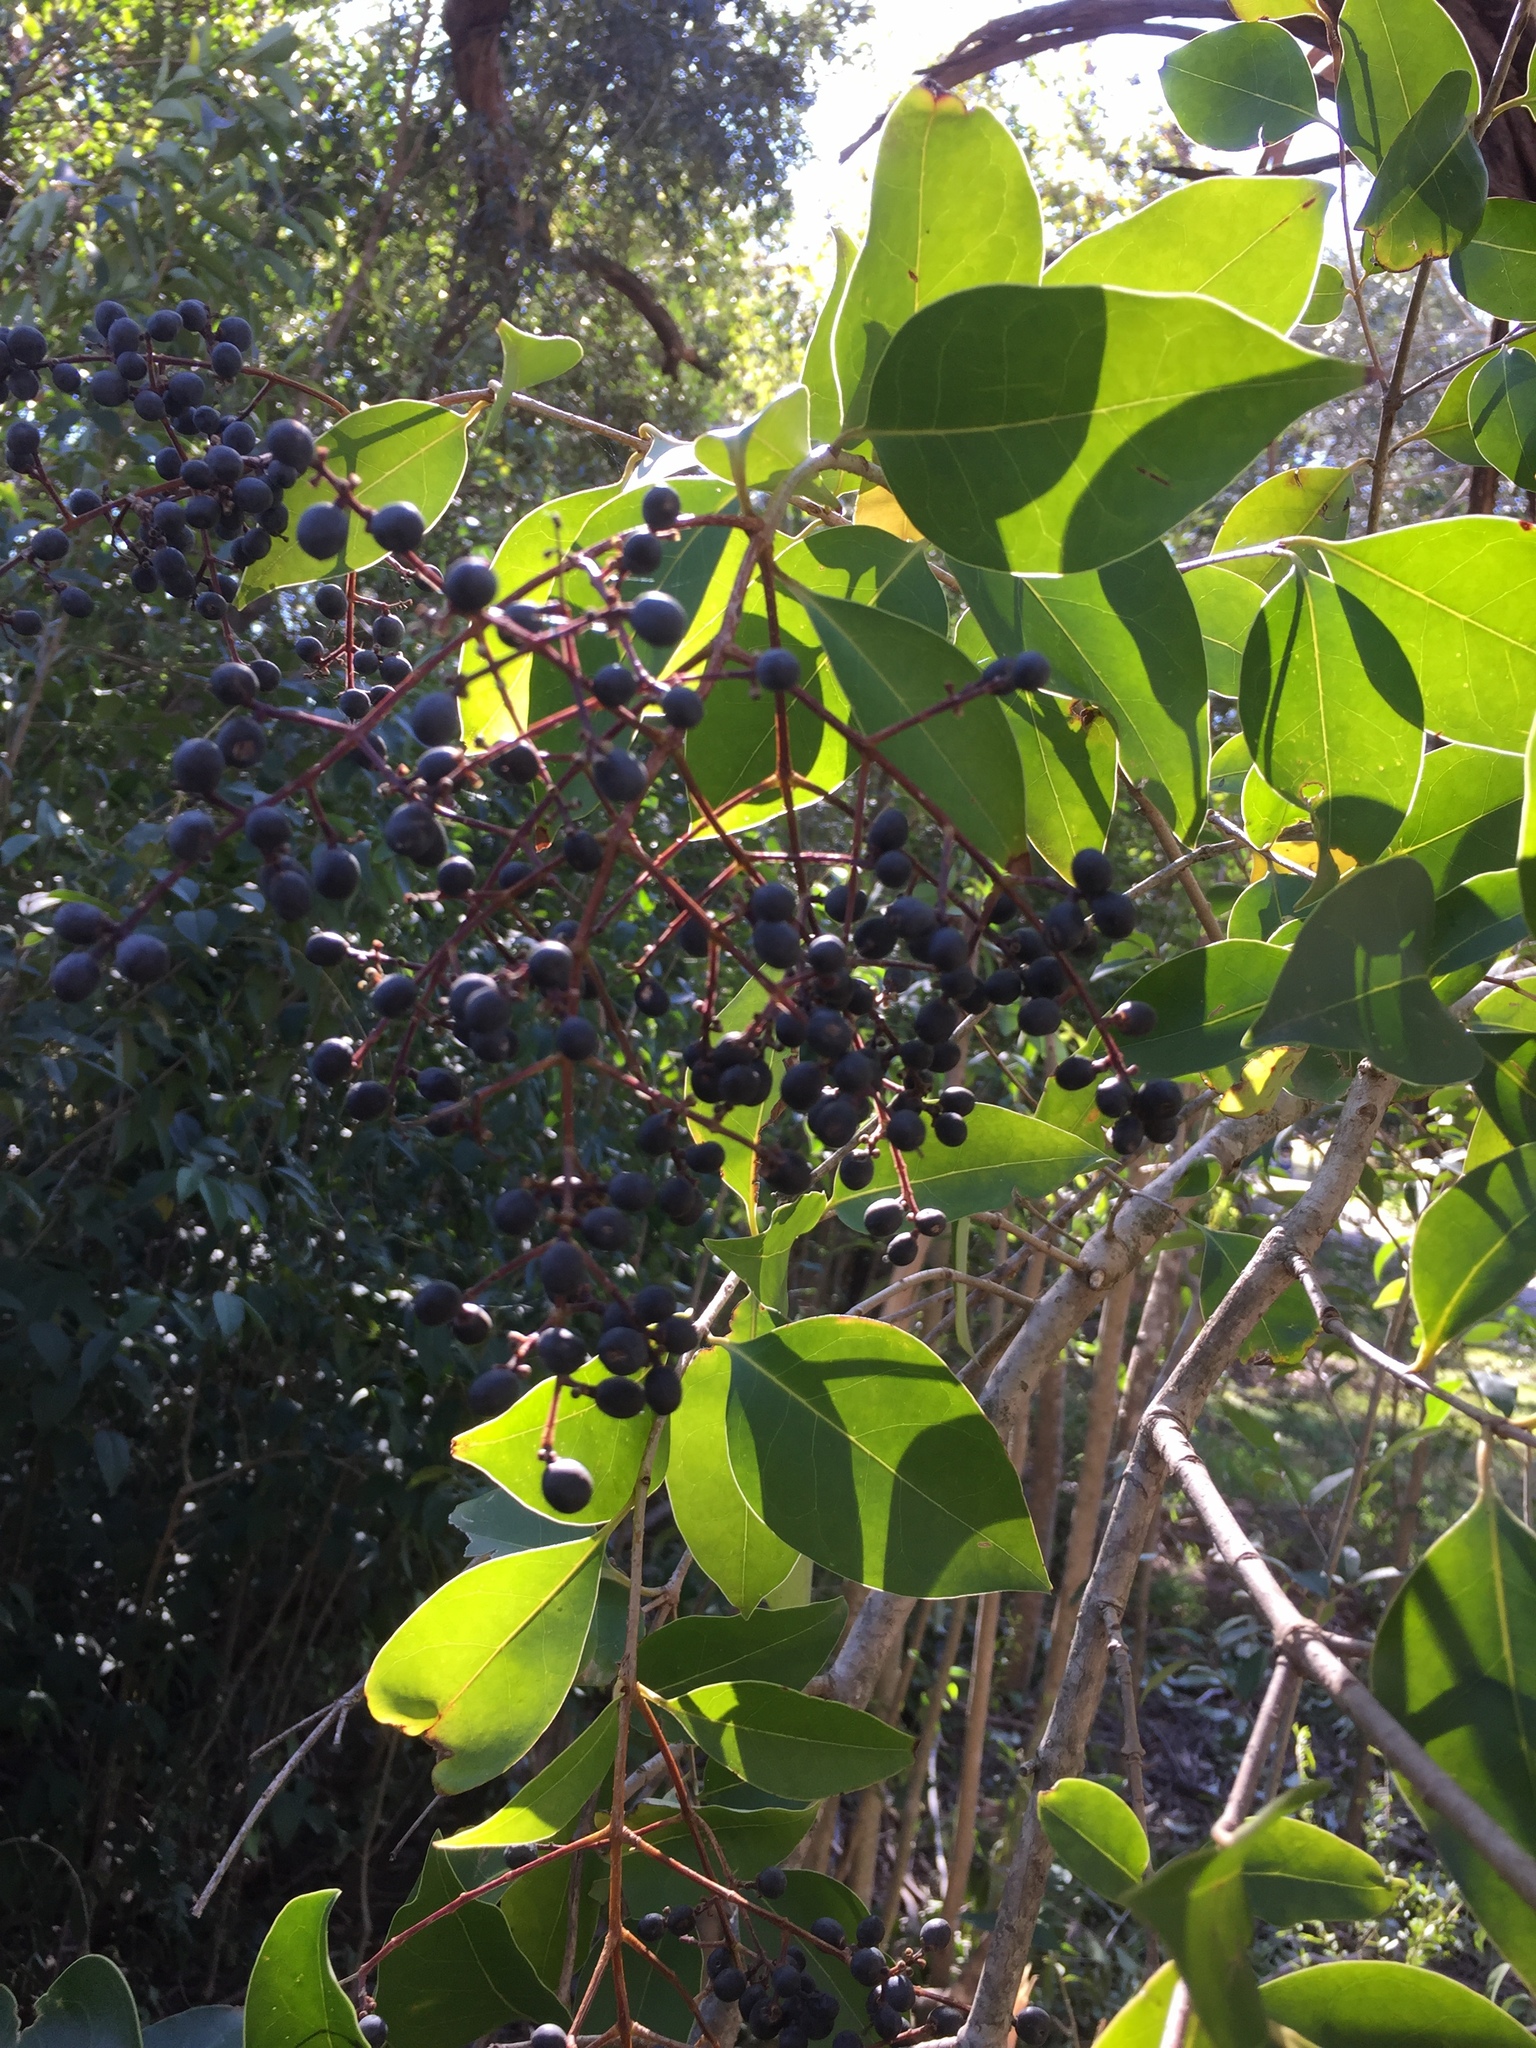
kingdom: Plantae
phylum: Tracheophyta
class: Magnoliopsida
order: Lamiales
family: Oleaceae
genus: Ligustrum
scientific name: Ligustrum lucidum
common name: Glossy privet
